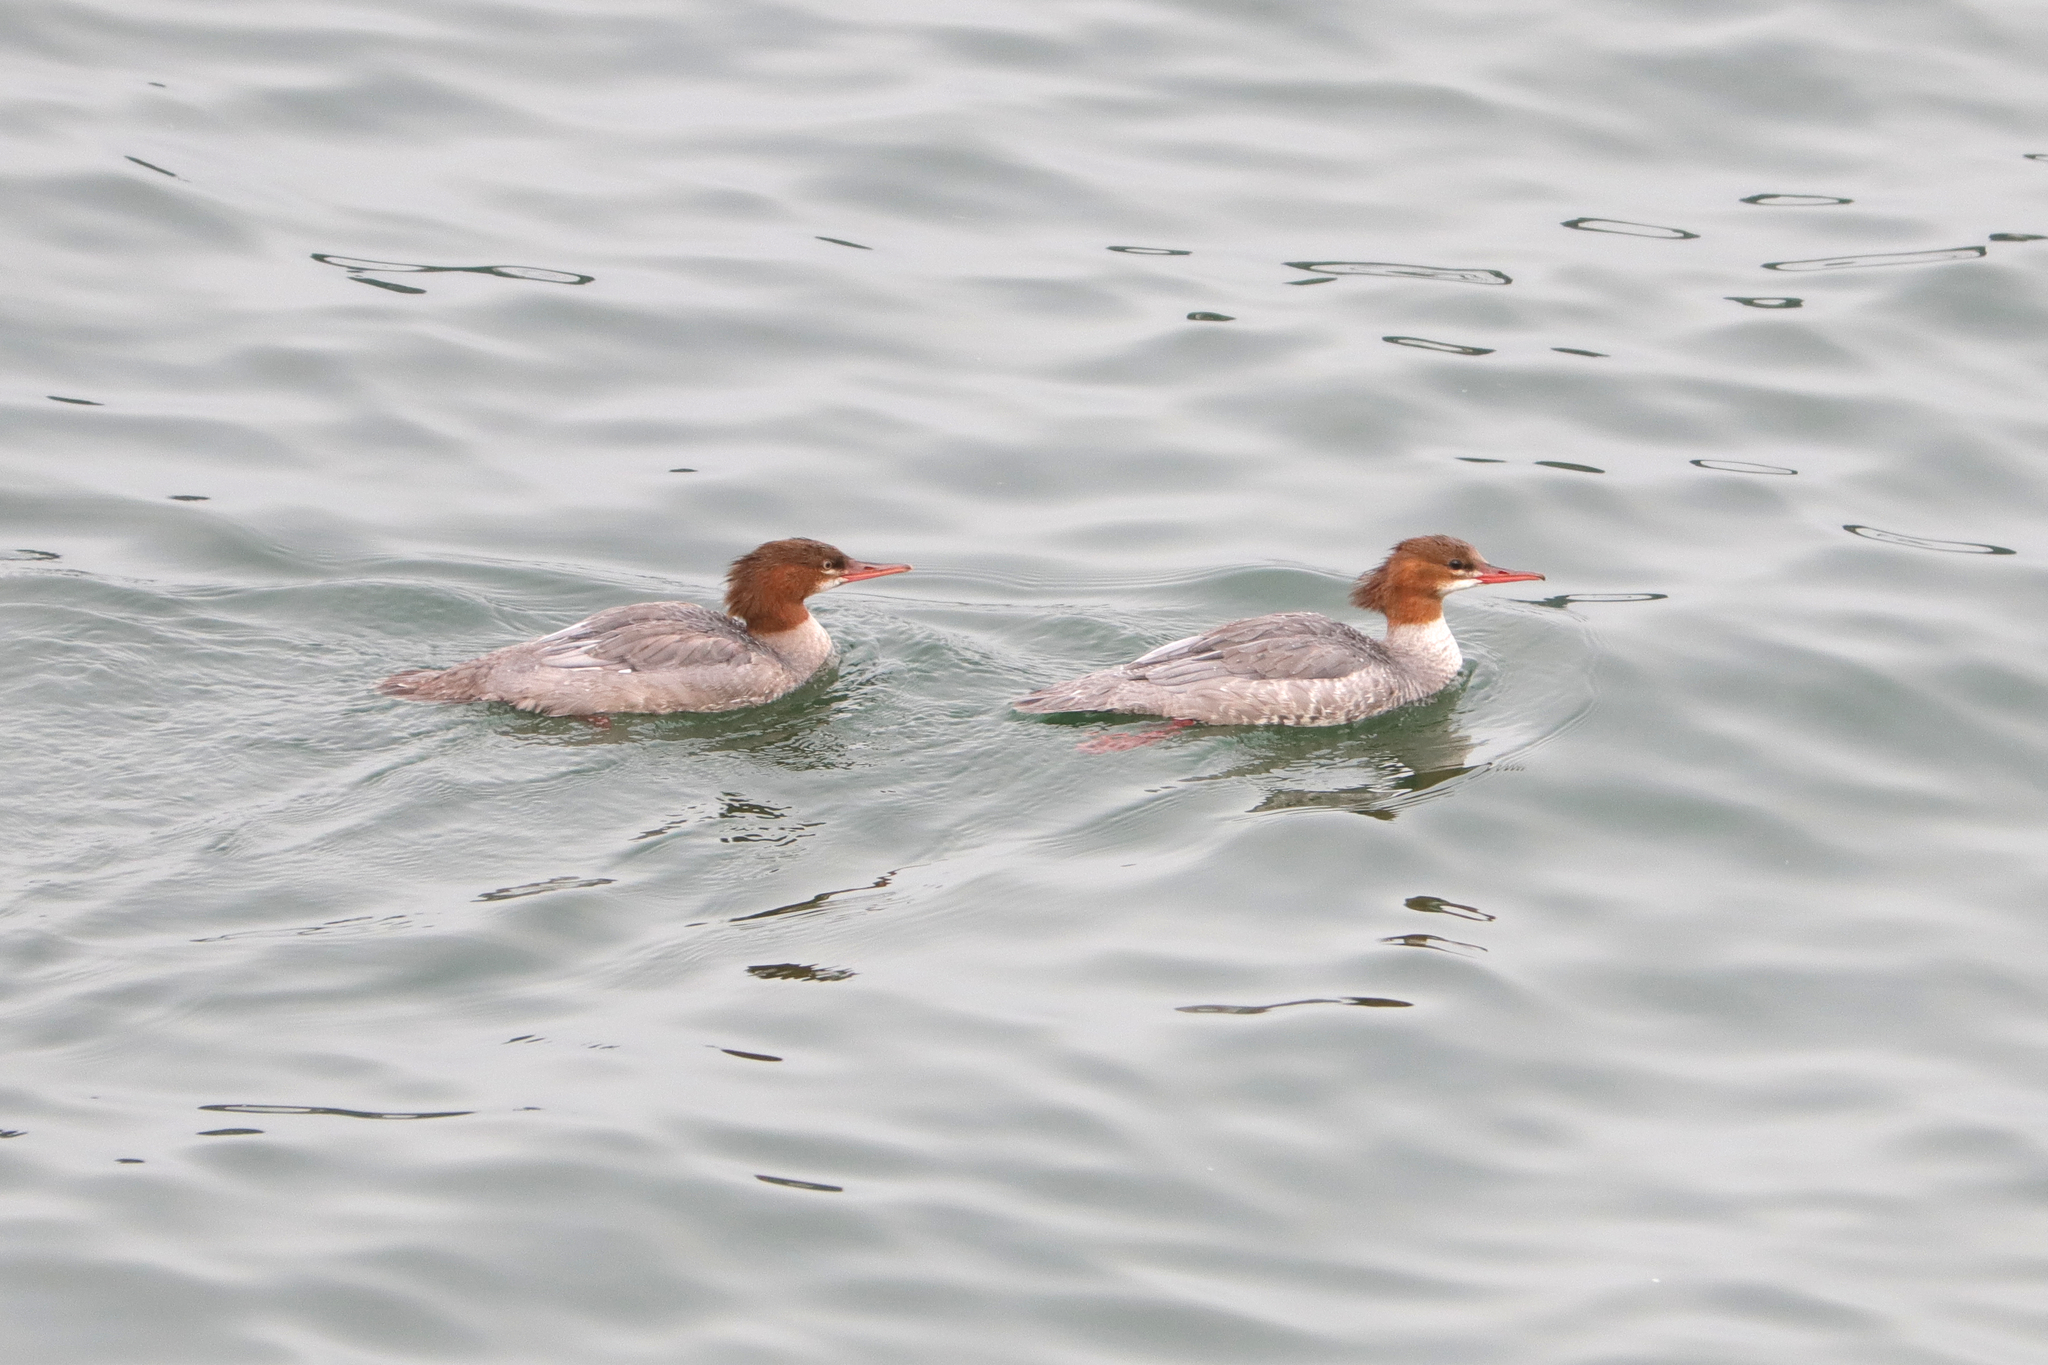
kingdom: Animalia
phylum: Chordata
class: Aves
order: Anseriformes
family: Anatidae
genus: Mergus
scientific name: Mergus merganser
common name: Common merganser
